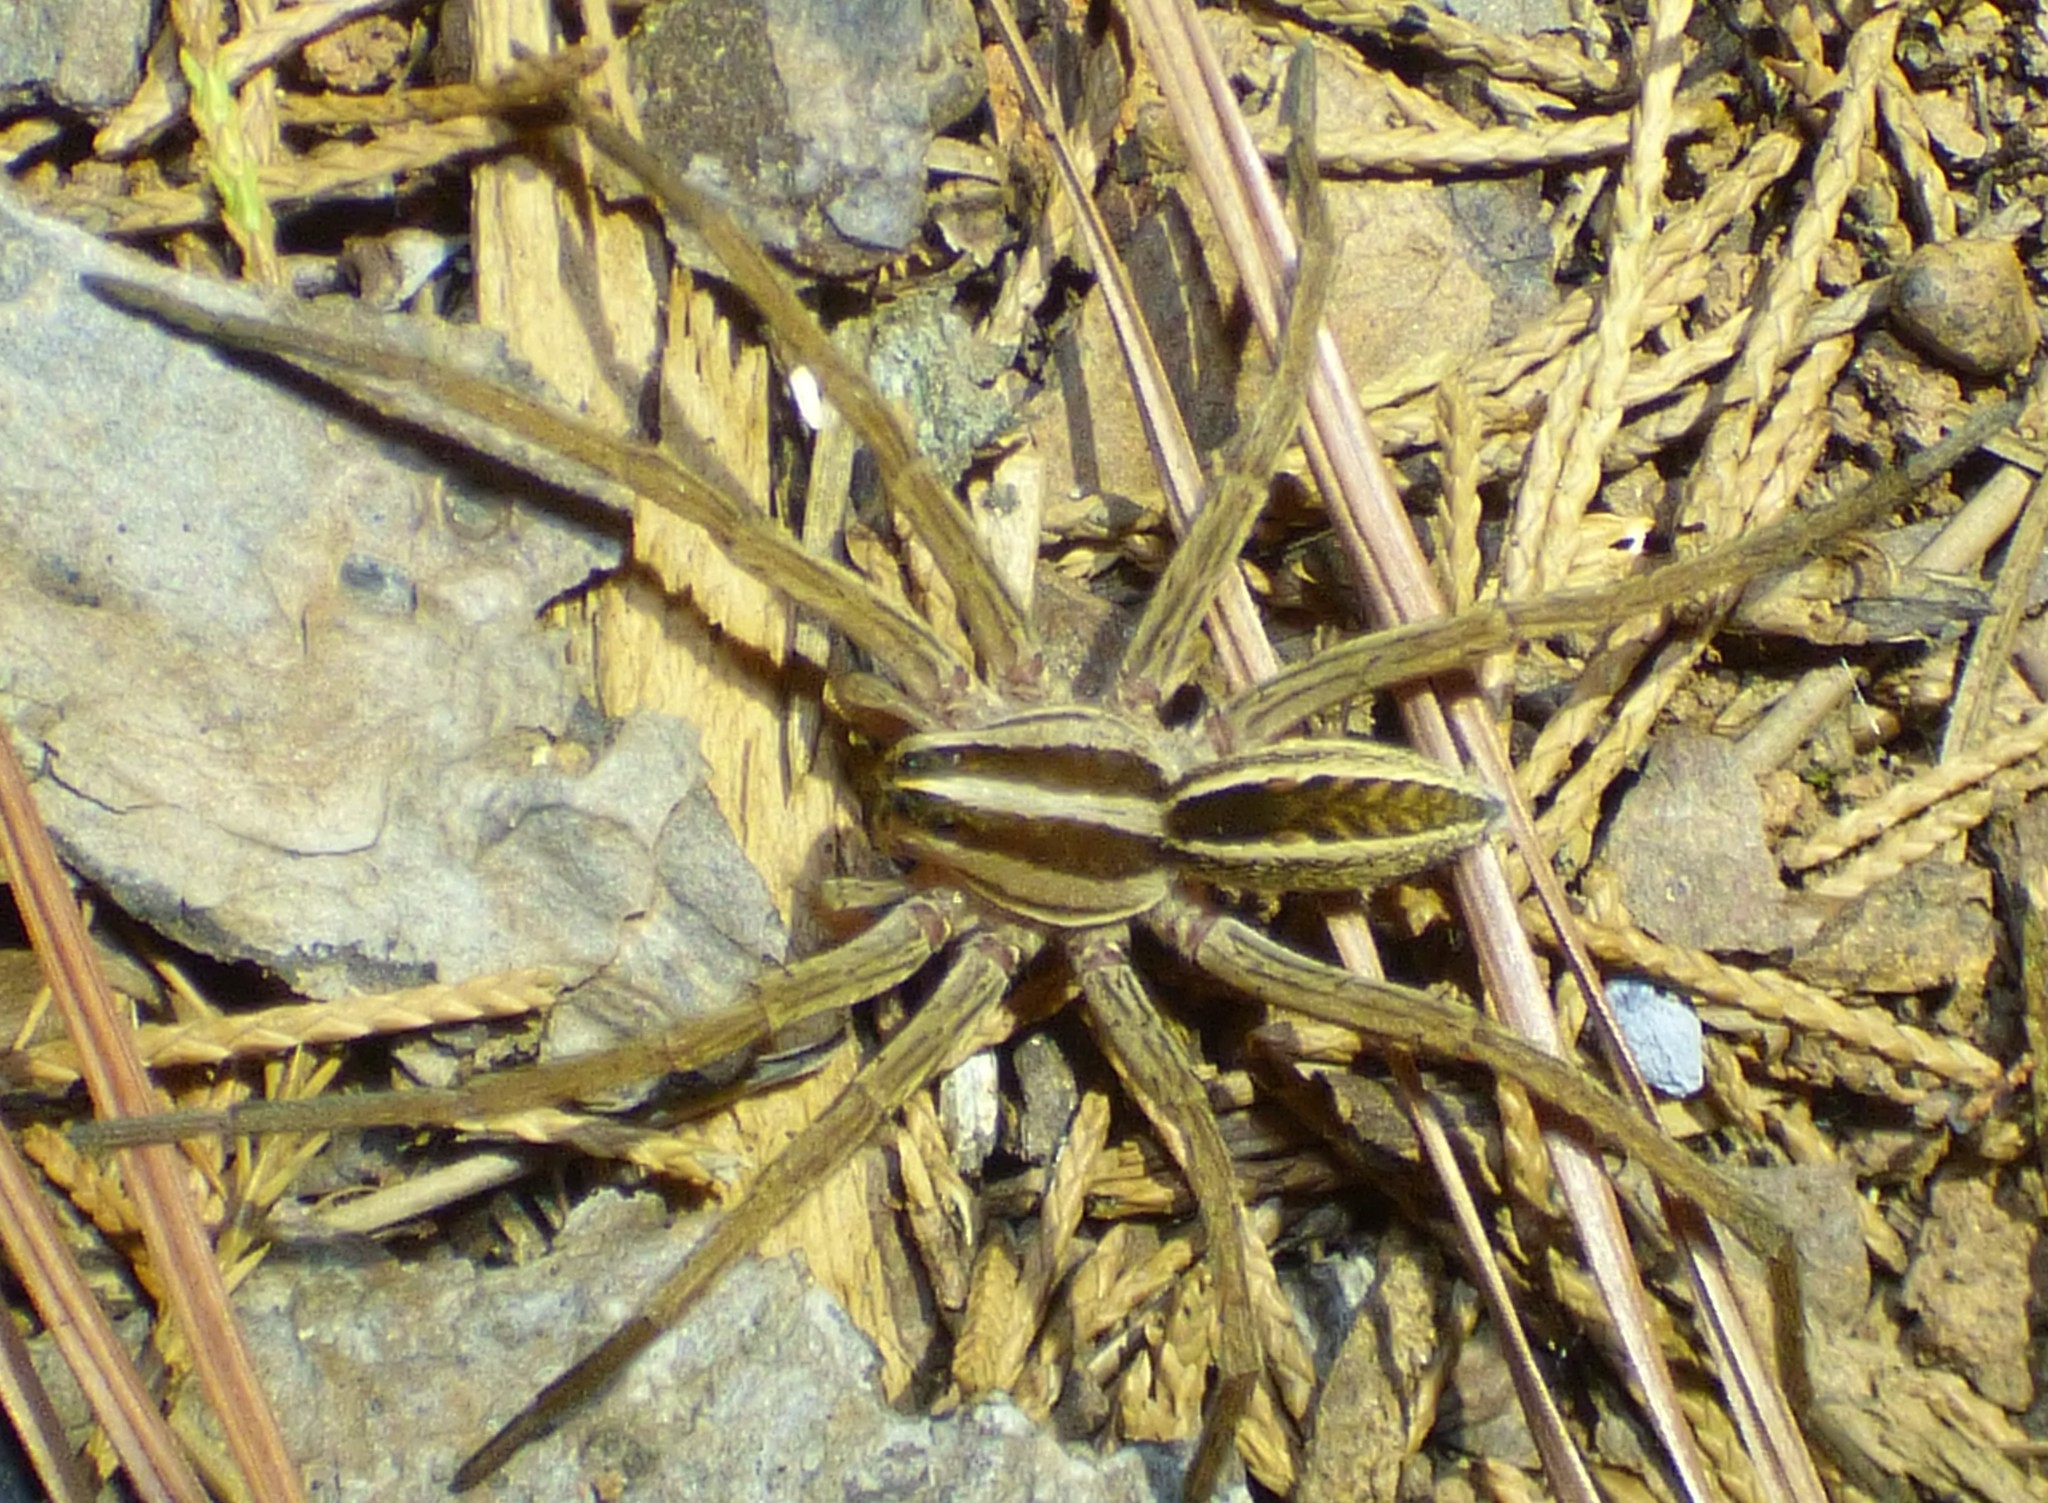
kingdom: Animalia
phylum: Arthropoda
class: Arachnida
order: Araneae
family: Lycosidae
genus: Rabidosa
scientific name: Rabidosa rabida
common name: Rabid wolf spider
